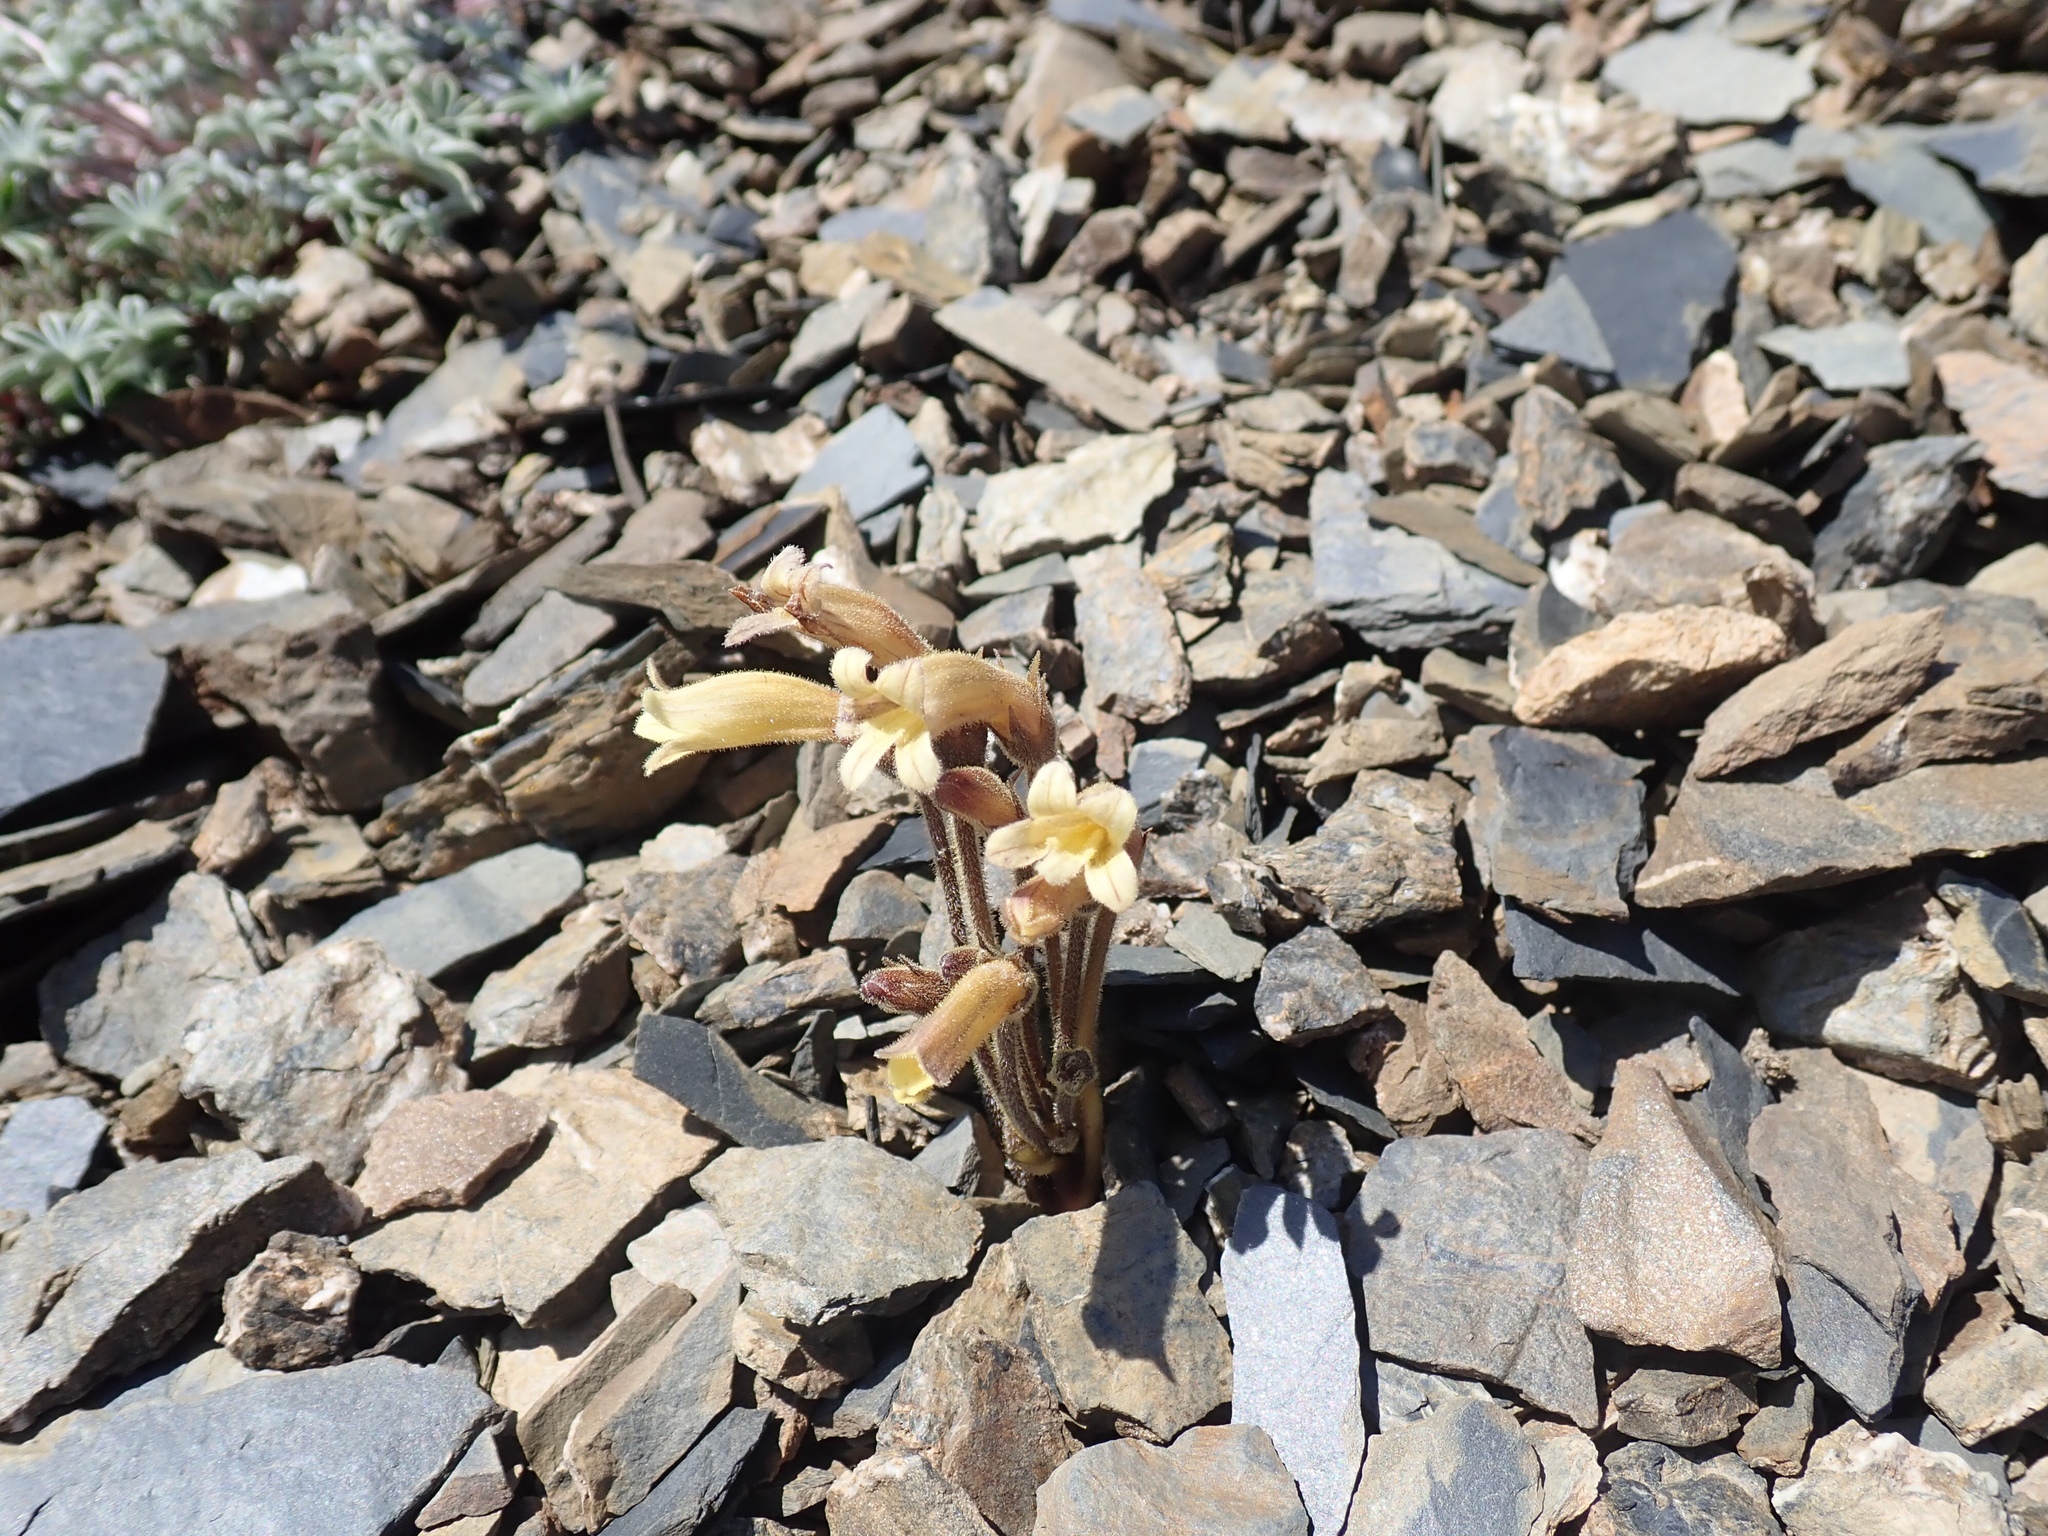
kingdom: Plantae
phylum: Tracheophyta
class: Magnoliopsida
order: Lamiales
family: Orobanchaceae
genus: Aphyllon
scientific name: Aphyllon franciscanum
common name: San francisco broomrape
